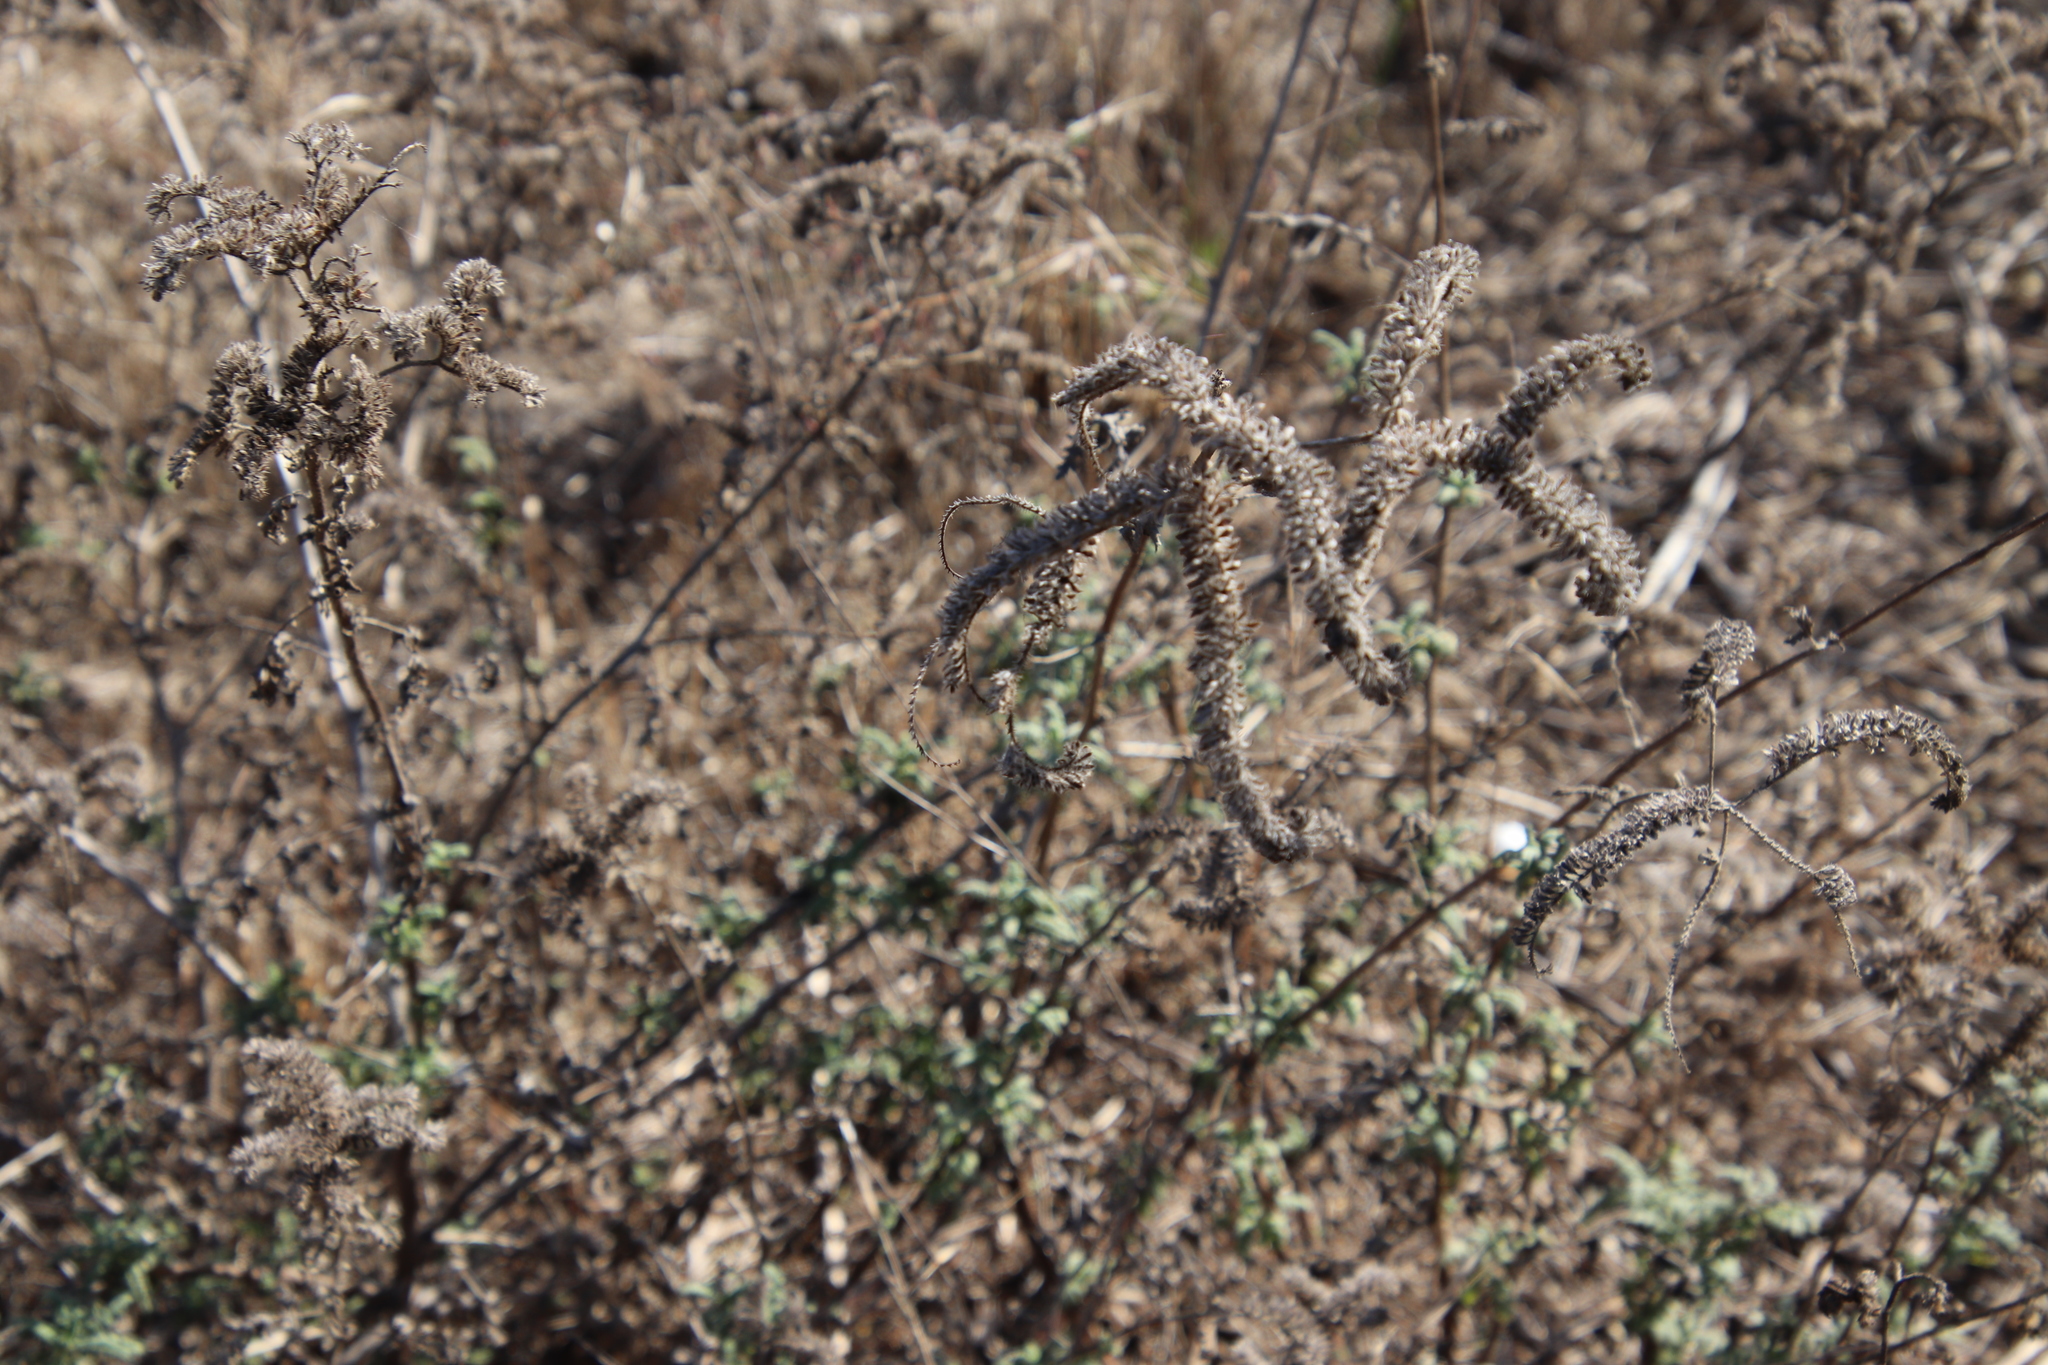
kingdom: Plantae
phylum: Tracheophyta
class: Magnoliopsida
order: Boraginales
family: Hydrophyllaceae
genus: Phacelia
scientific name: Phacelia ramosissima
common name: Branching phacelia
